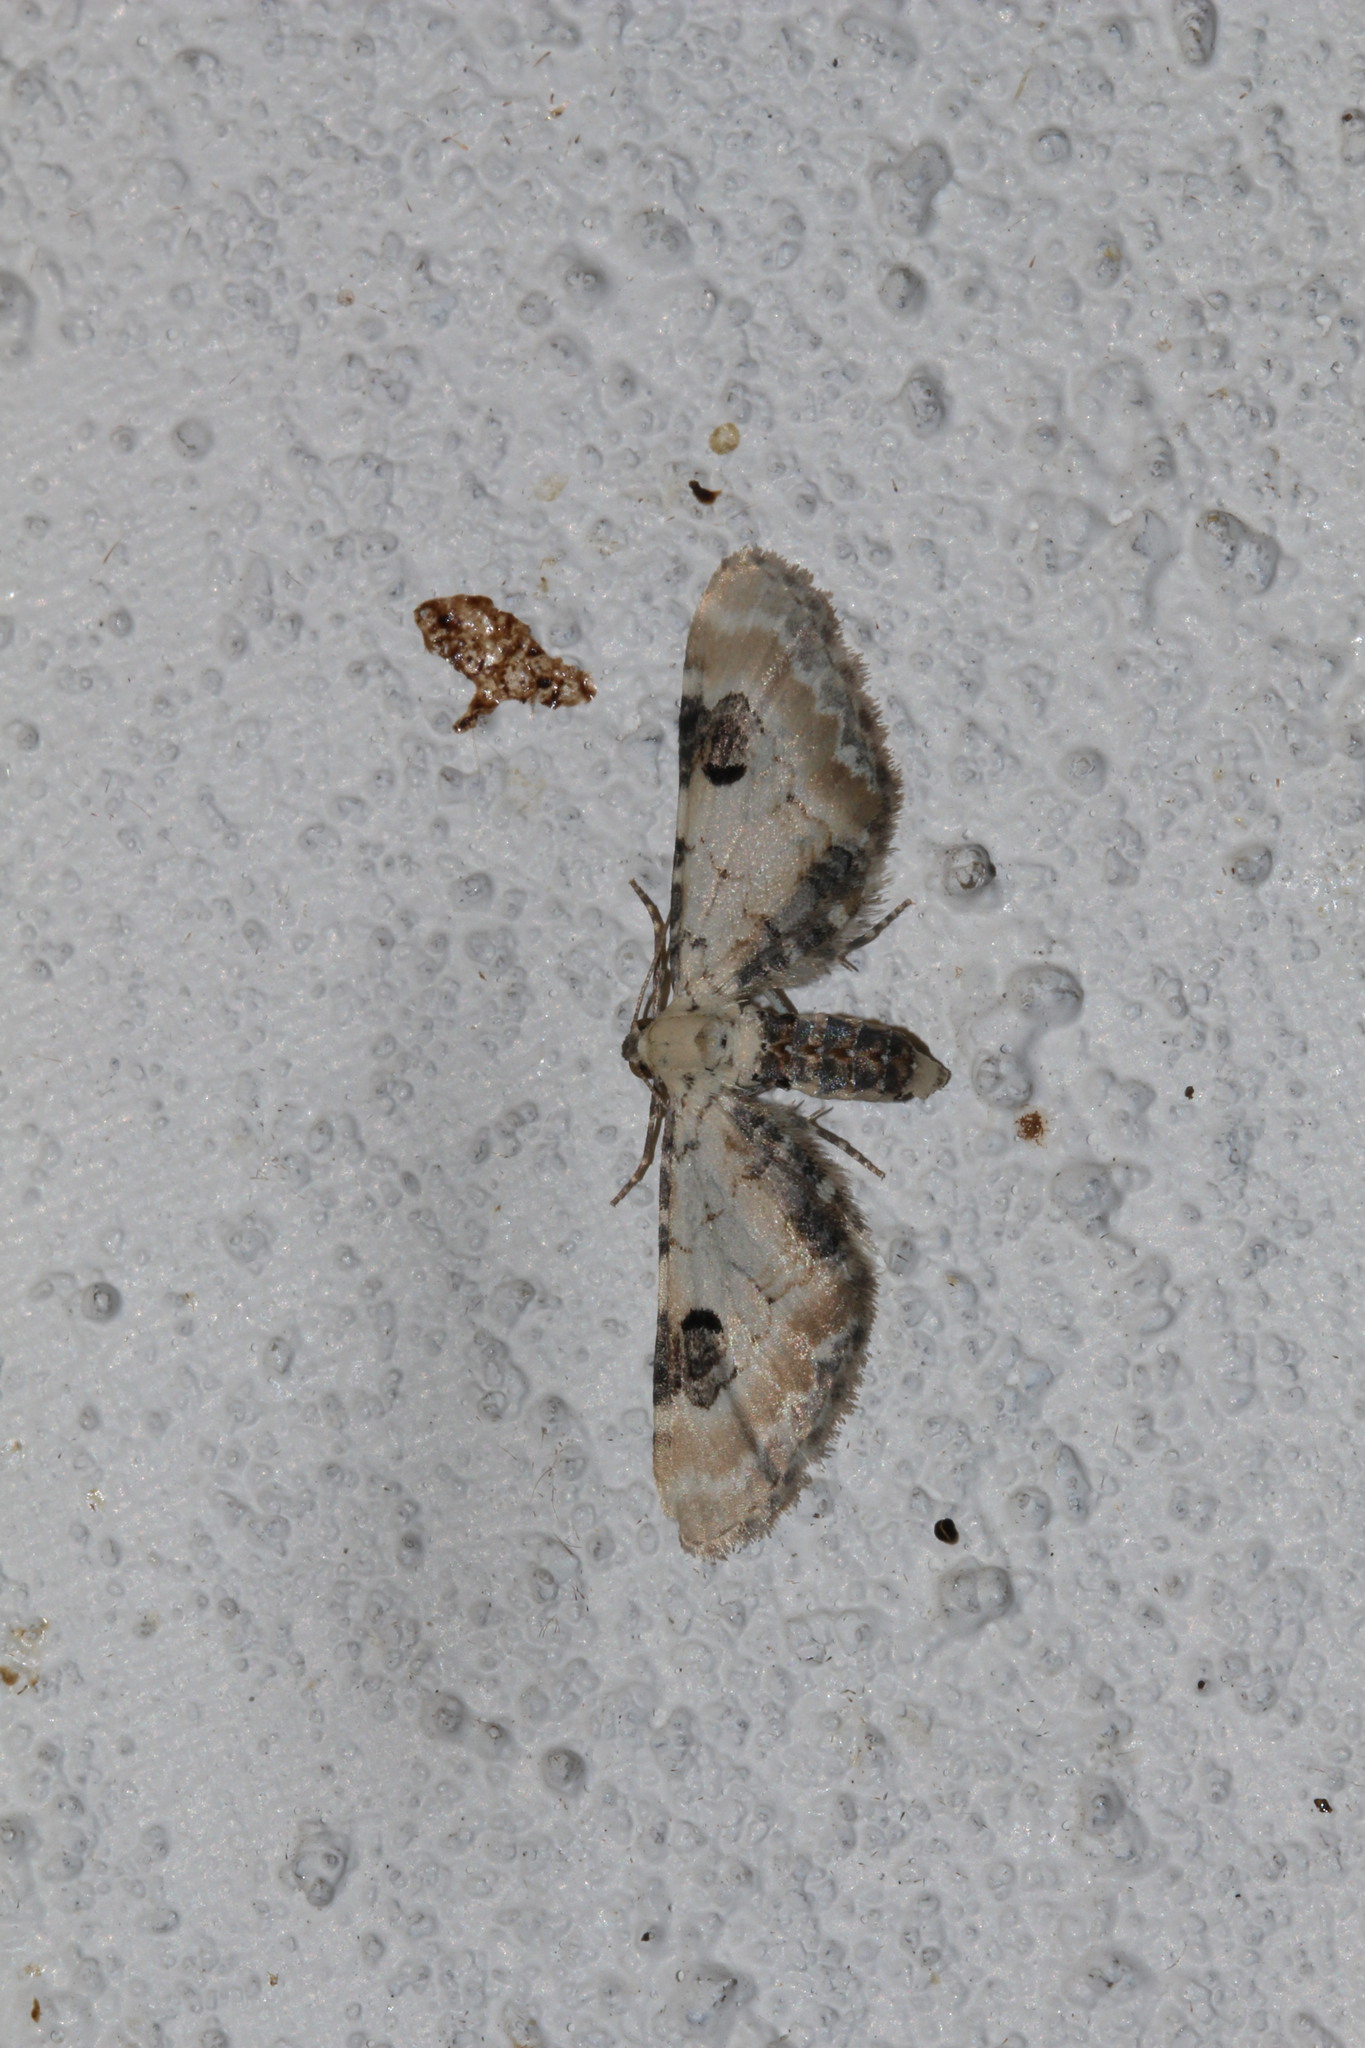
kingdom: Animalia
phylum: Arthropoda
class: Insecta
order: Lepidoptera
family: Geometridae
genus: Eupithecia
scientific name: Eupithecia centaureata
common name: Lime-speck pug
